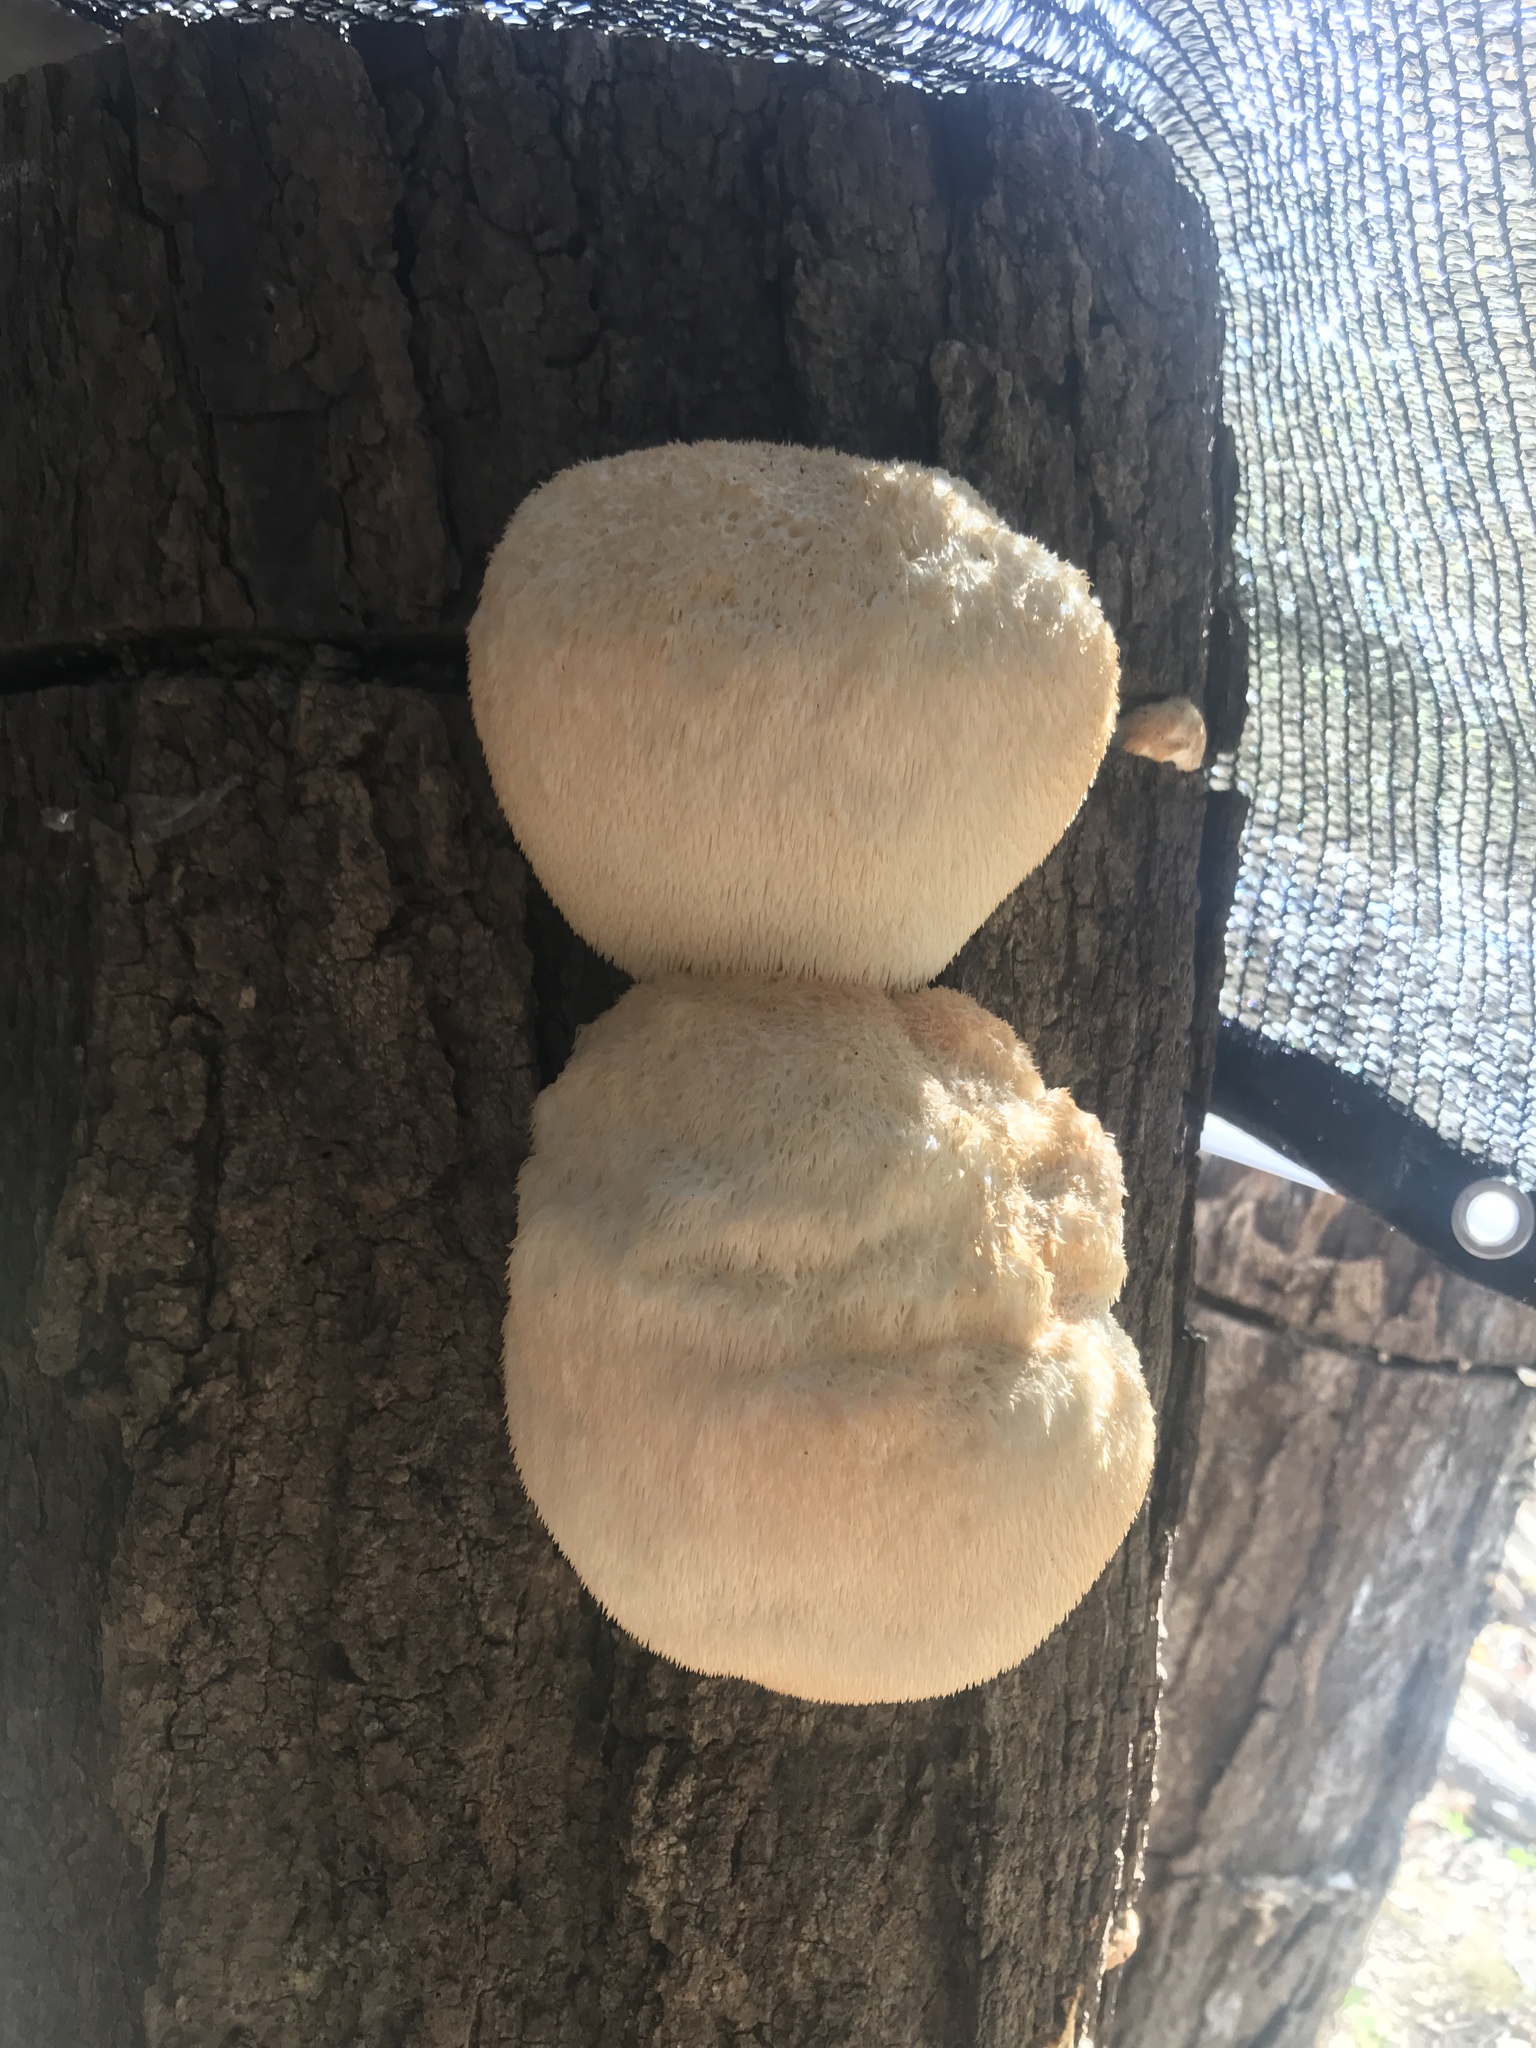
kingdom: Fungi
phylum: Basidiomycota
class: Agaricomycetes
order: Russulales
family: Hericiaceae
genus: Hericium
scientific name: Hericium erinaceus
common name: Bearded tooth
